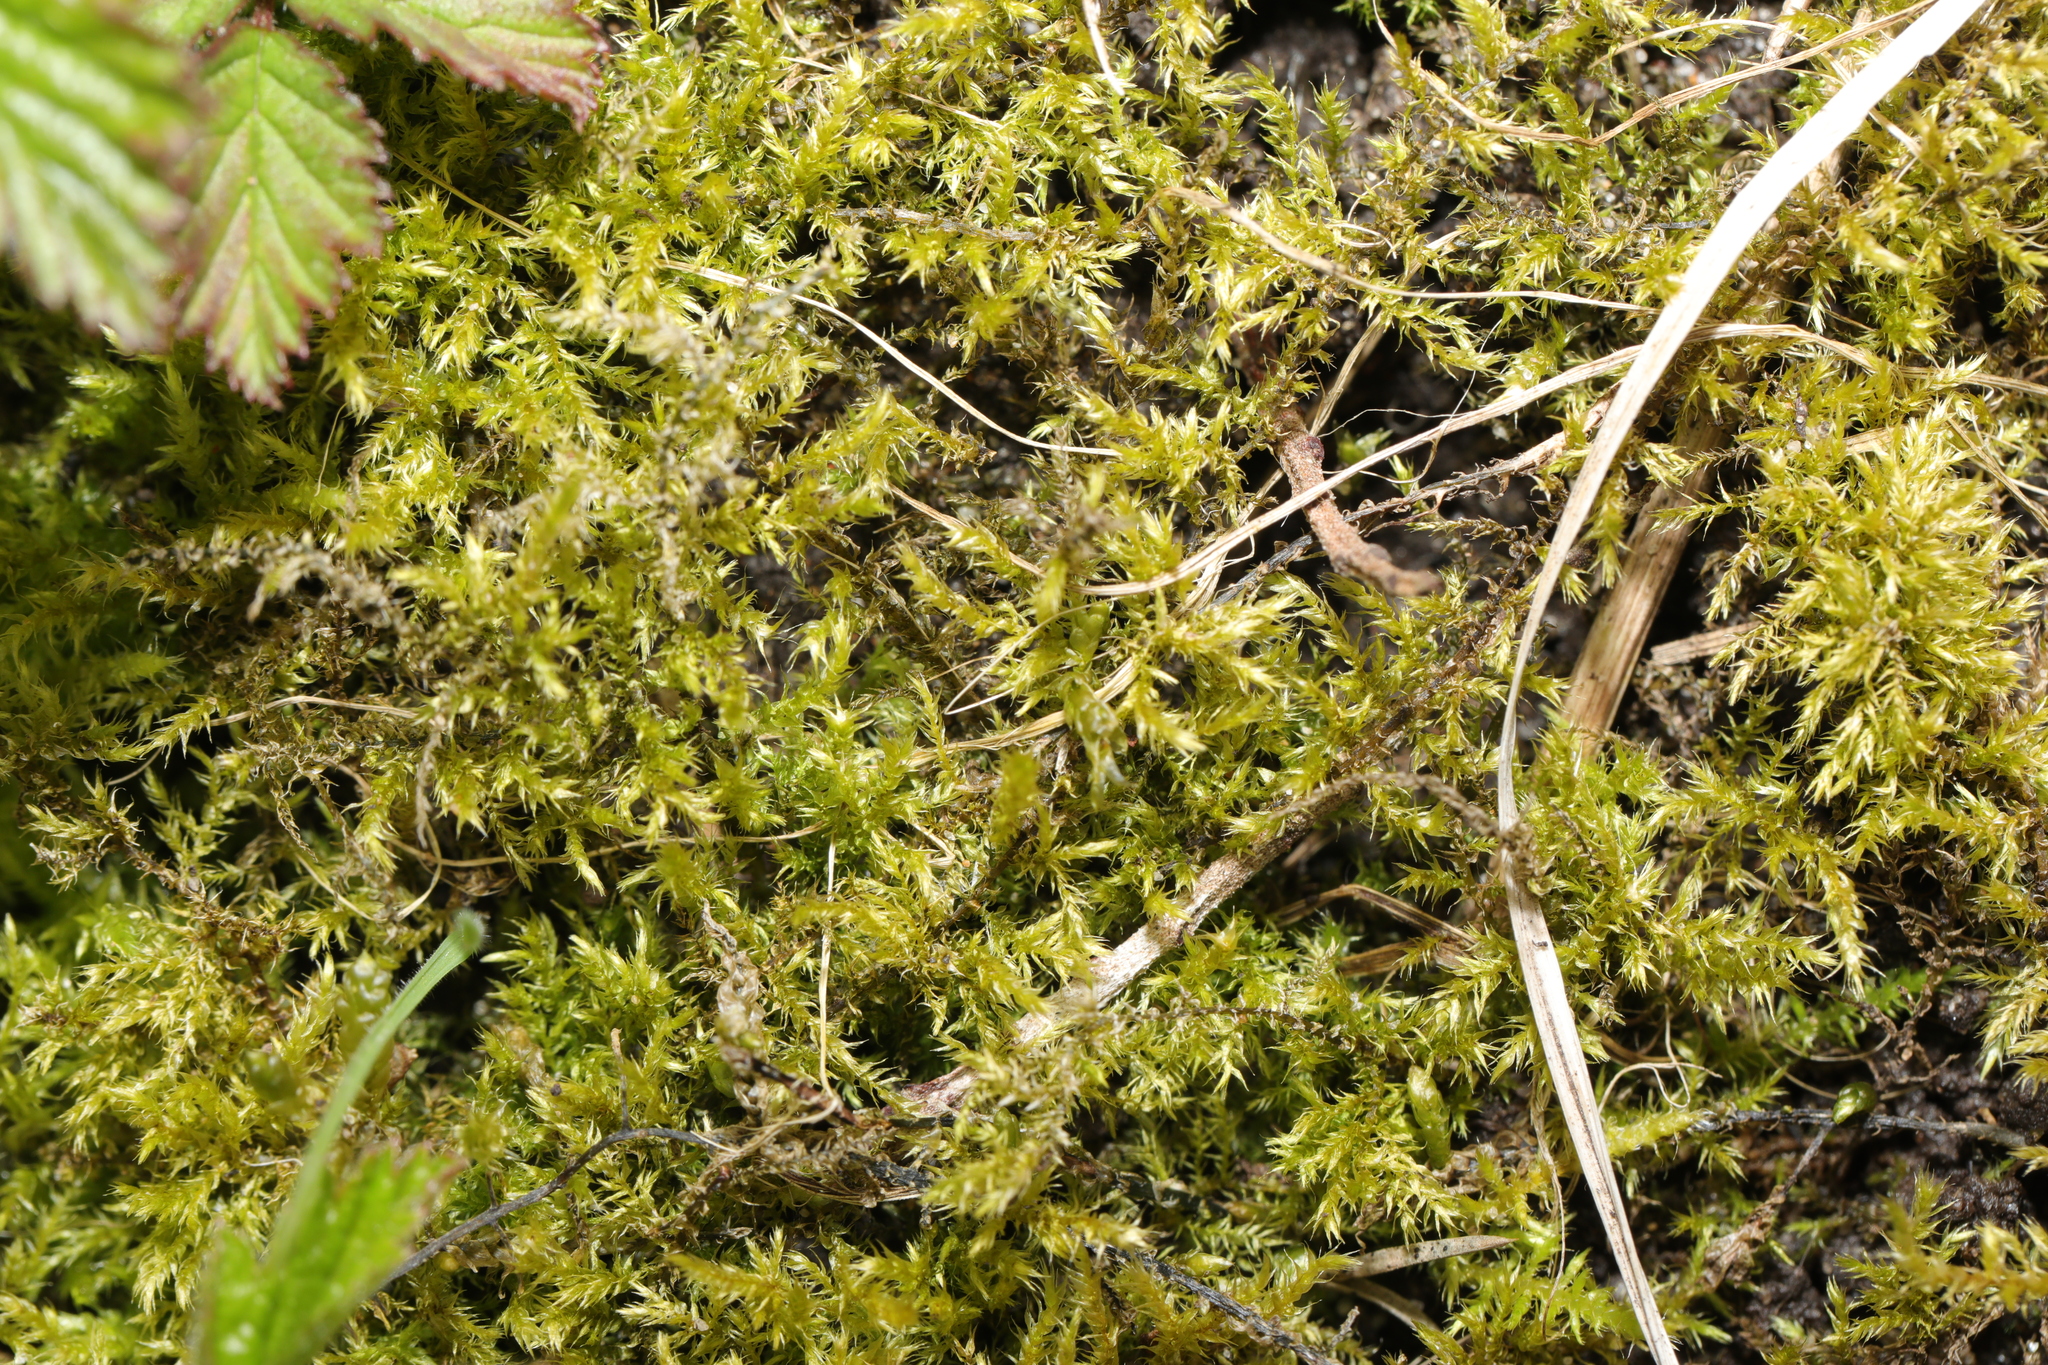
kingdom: Plantae
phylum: Bryophyta
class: Bryopsida
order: Hypnales
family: Pylaisiaceae
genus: Calliergonella
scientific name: Calliergonella cuspidata
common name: Common large wetland moss
